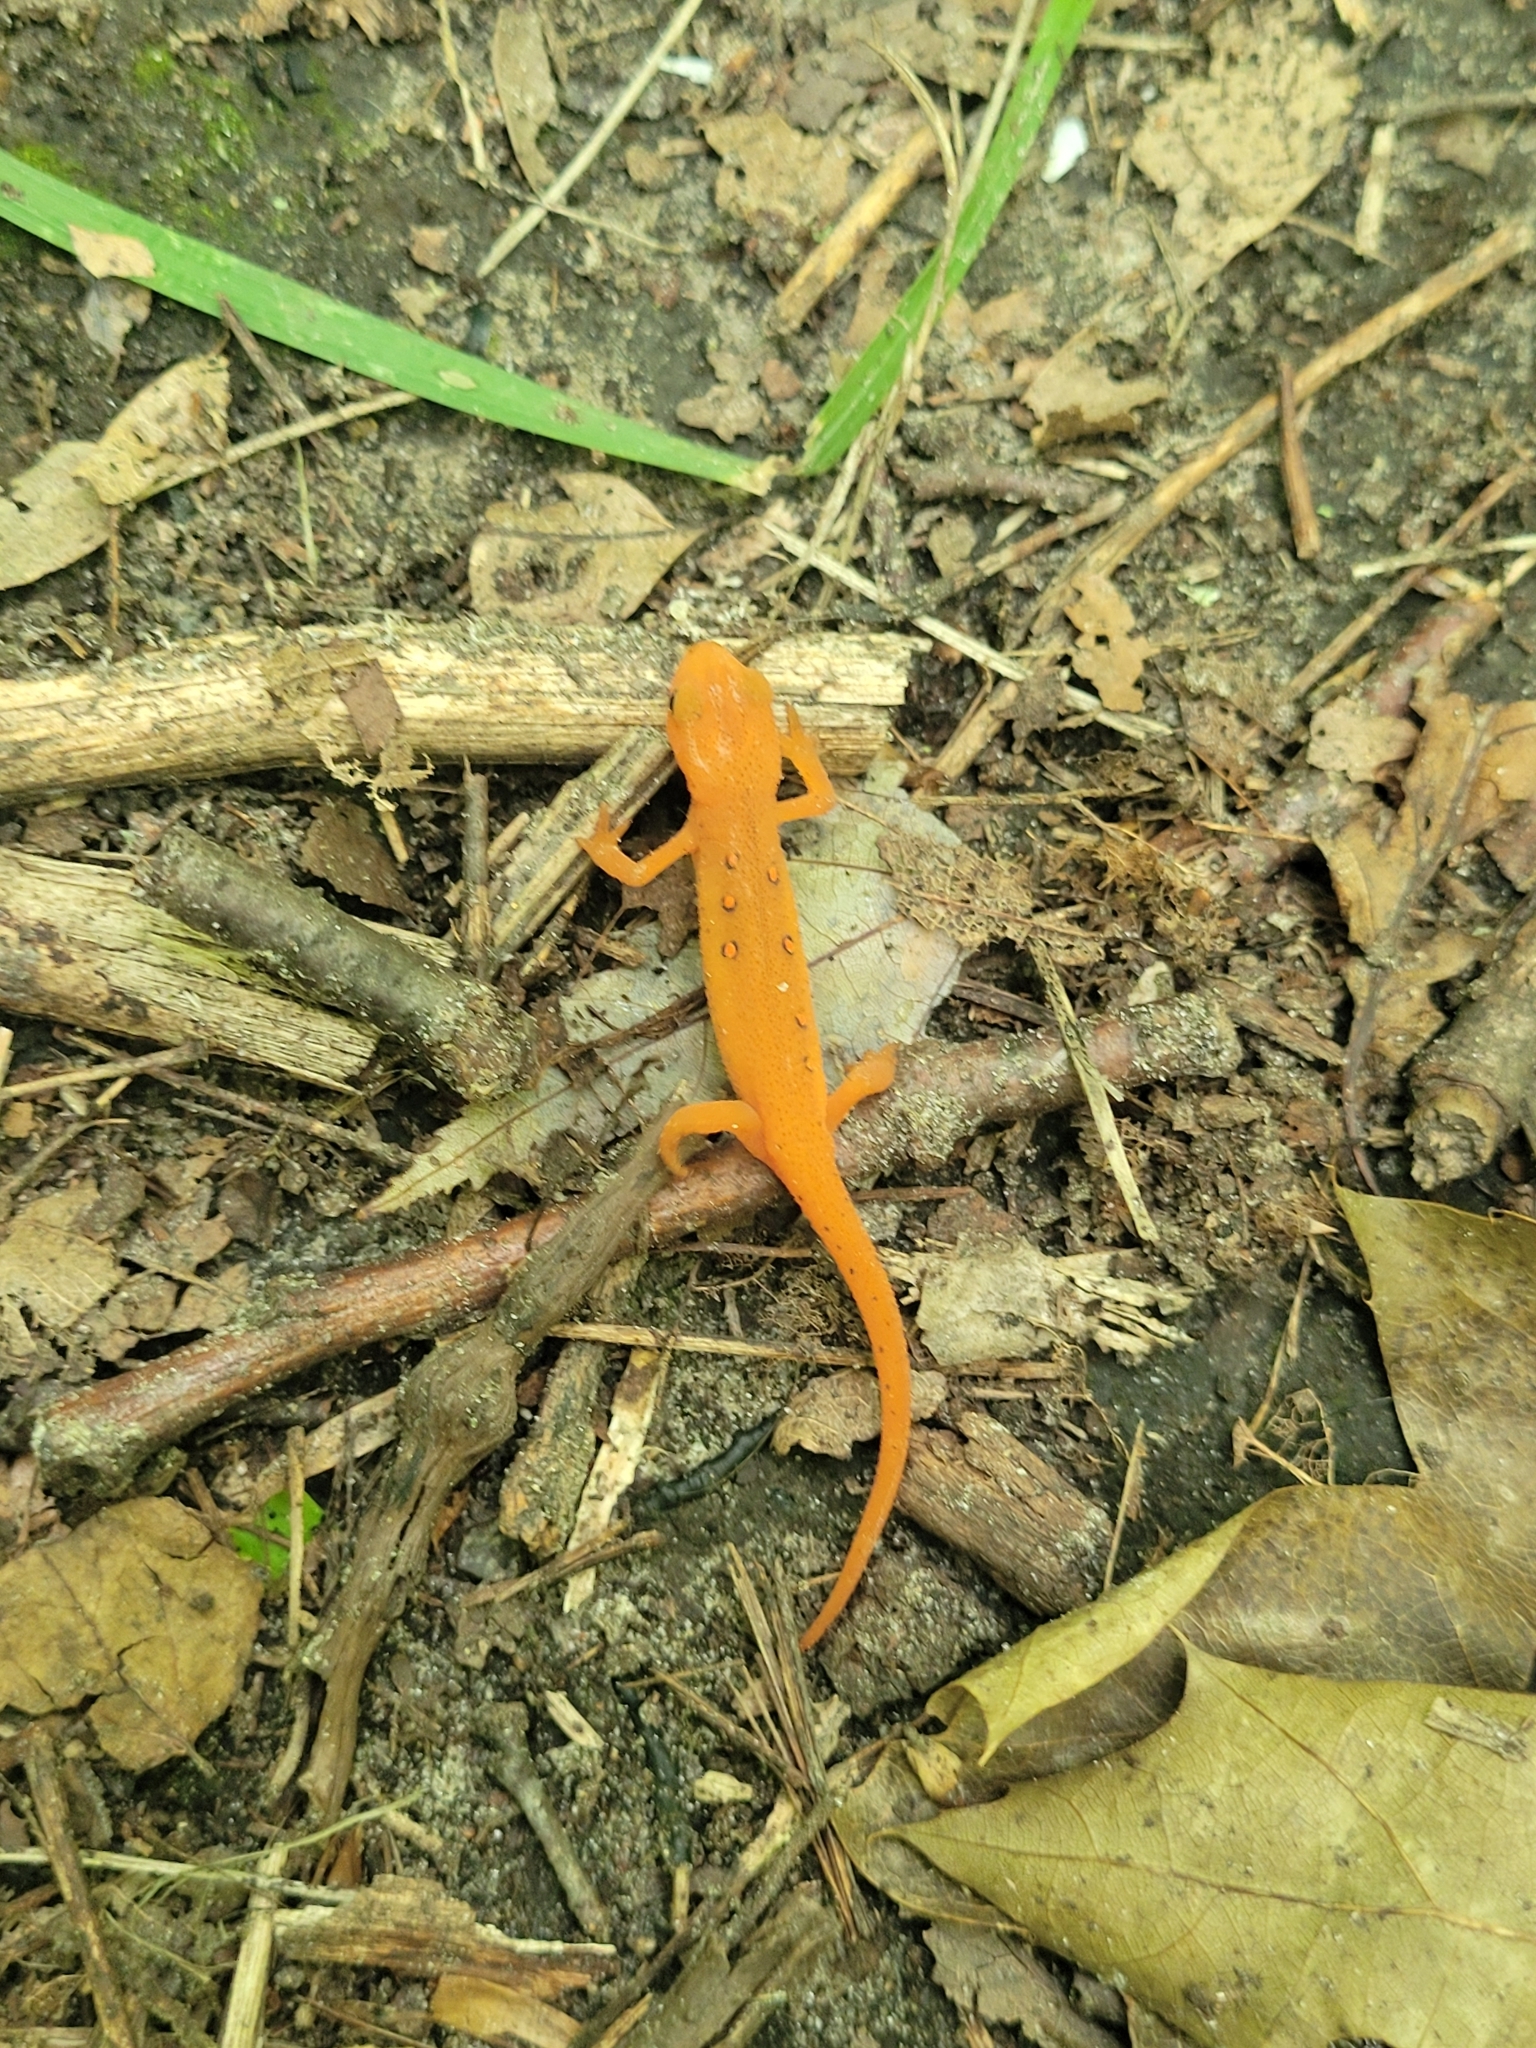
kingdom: Animalia
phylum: Chordata
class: Amphibia
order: Caudata
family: Salamandridae
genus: Notophthalmus
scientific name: Notophthalmus viridescens
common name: Eastern newt
